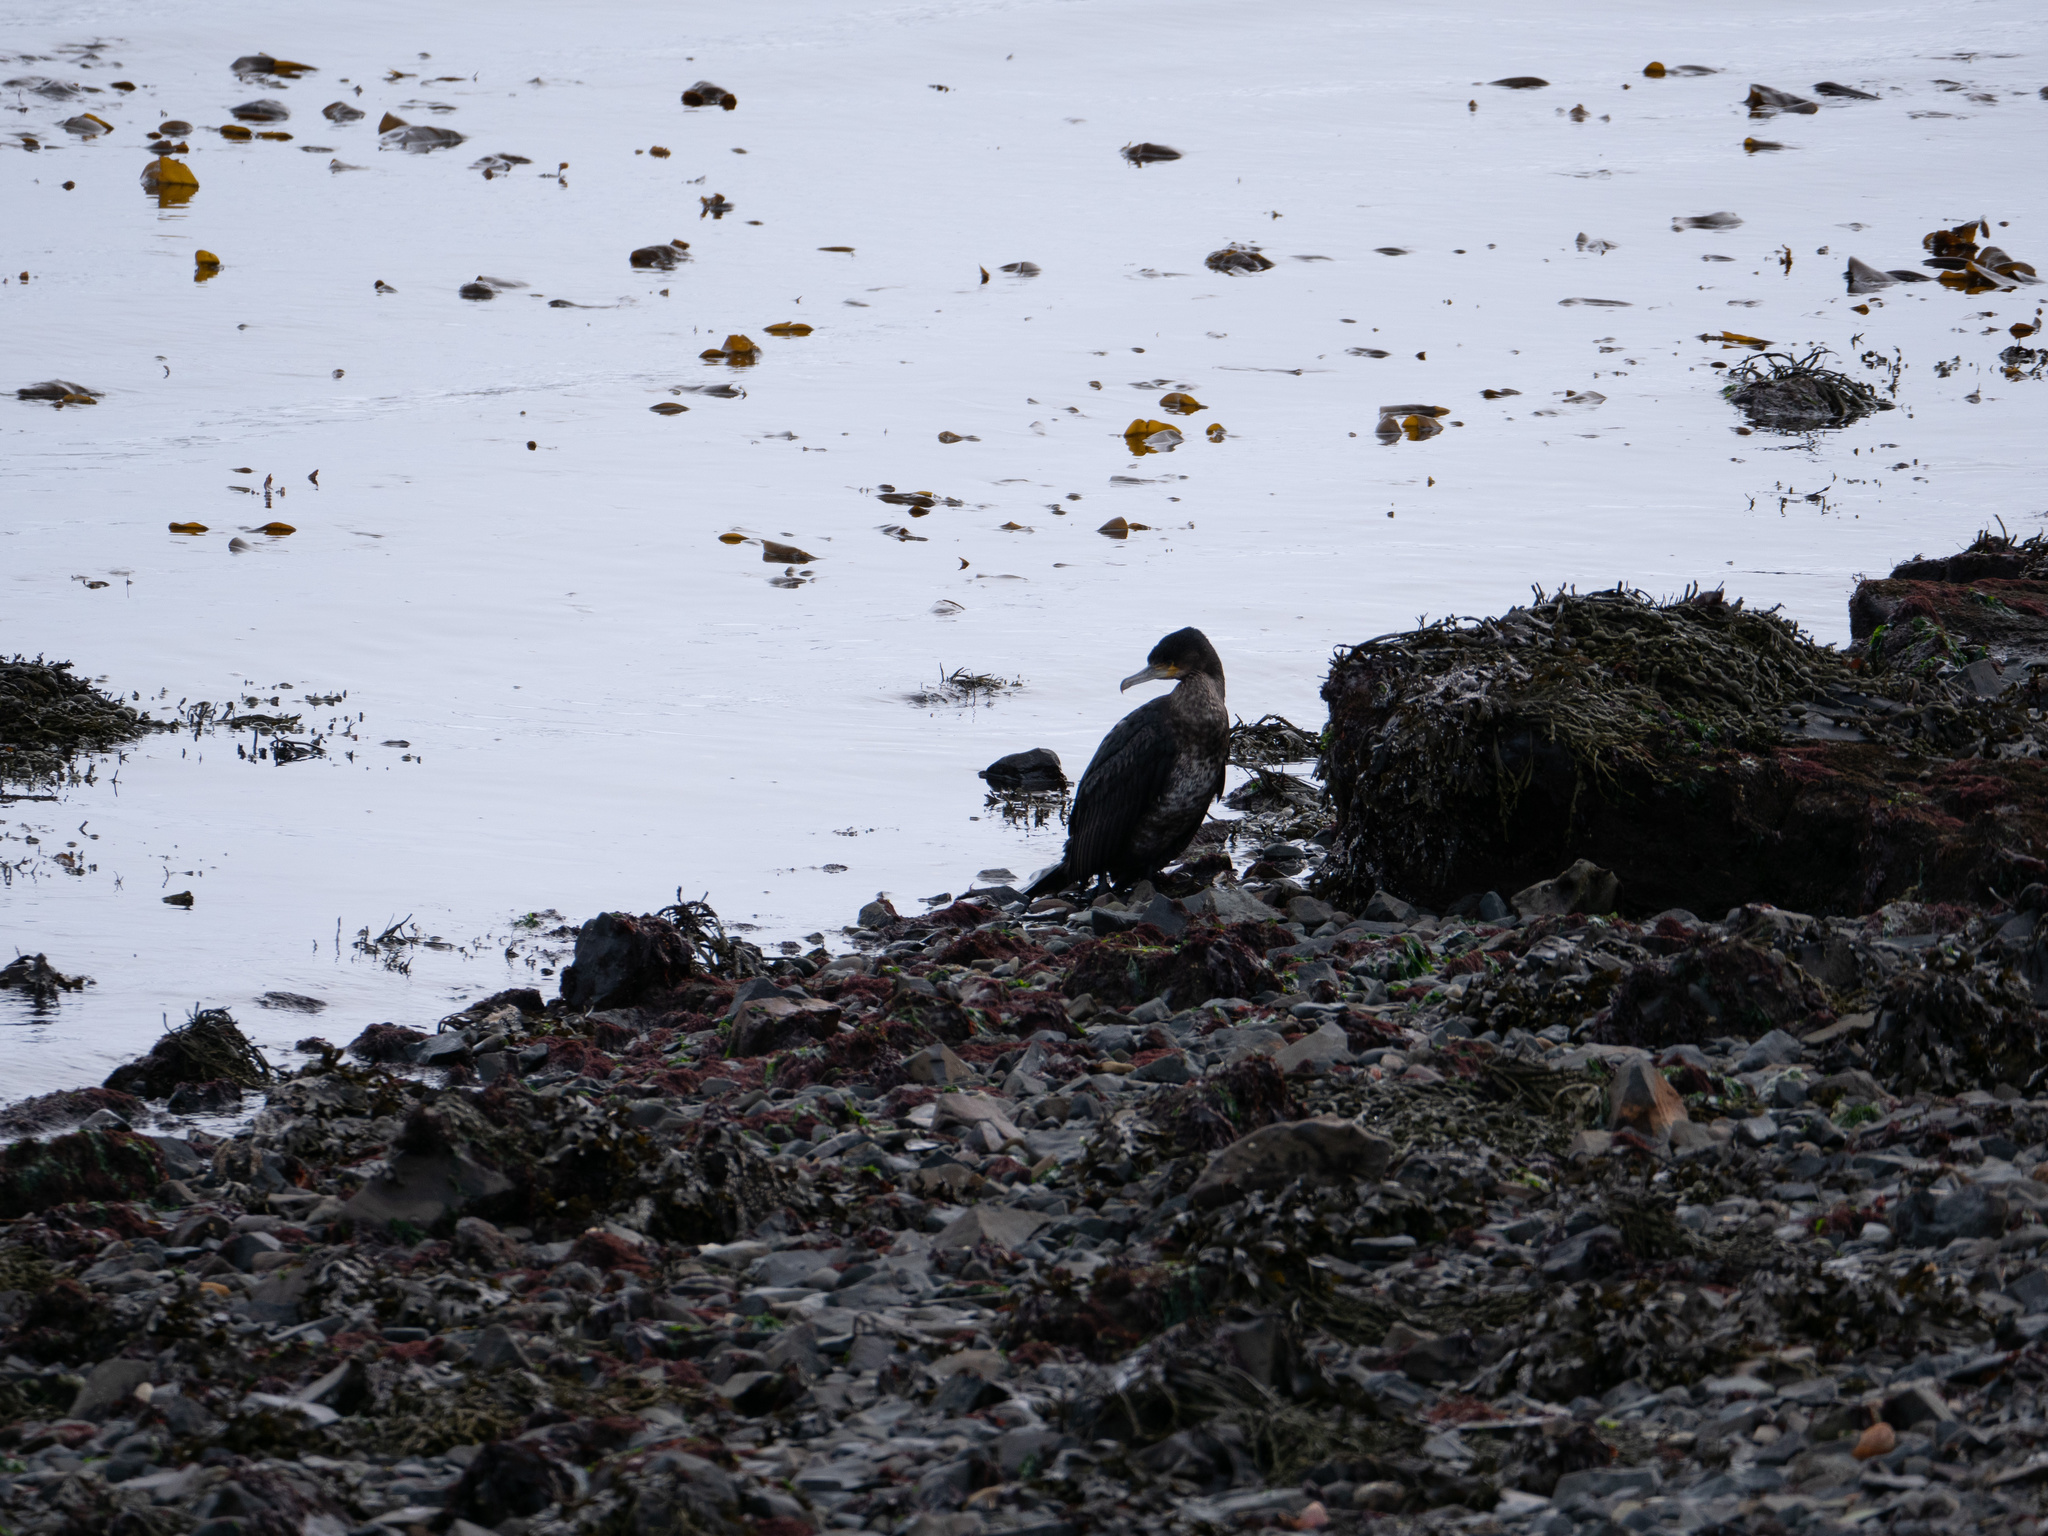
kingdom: Animalia
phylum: Chordata
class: Aves
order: Suliformes
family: Phalacrocoracidae
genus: Phalacrocorax
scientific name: Phalacrocorax carbo
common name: Great cormorant
